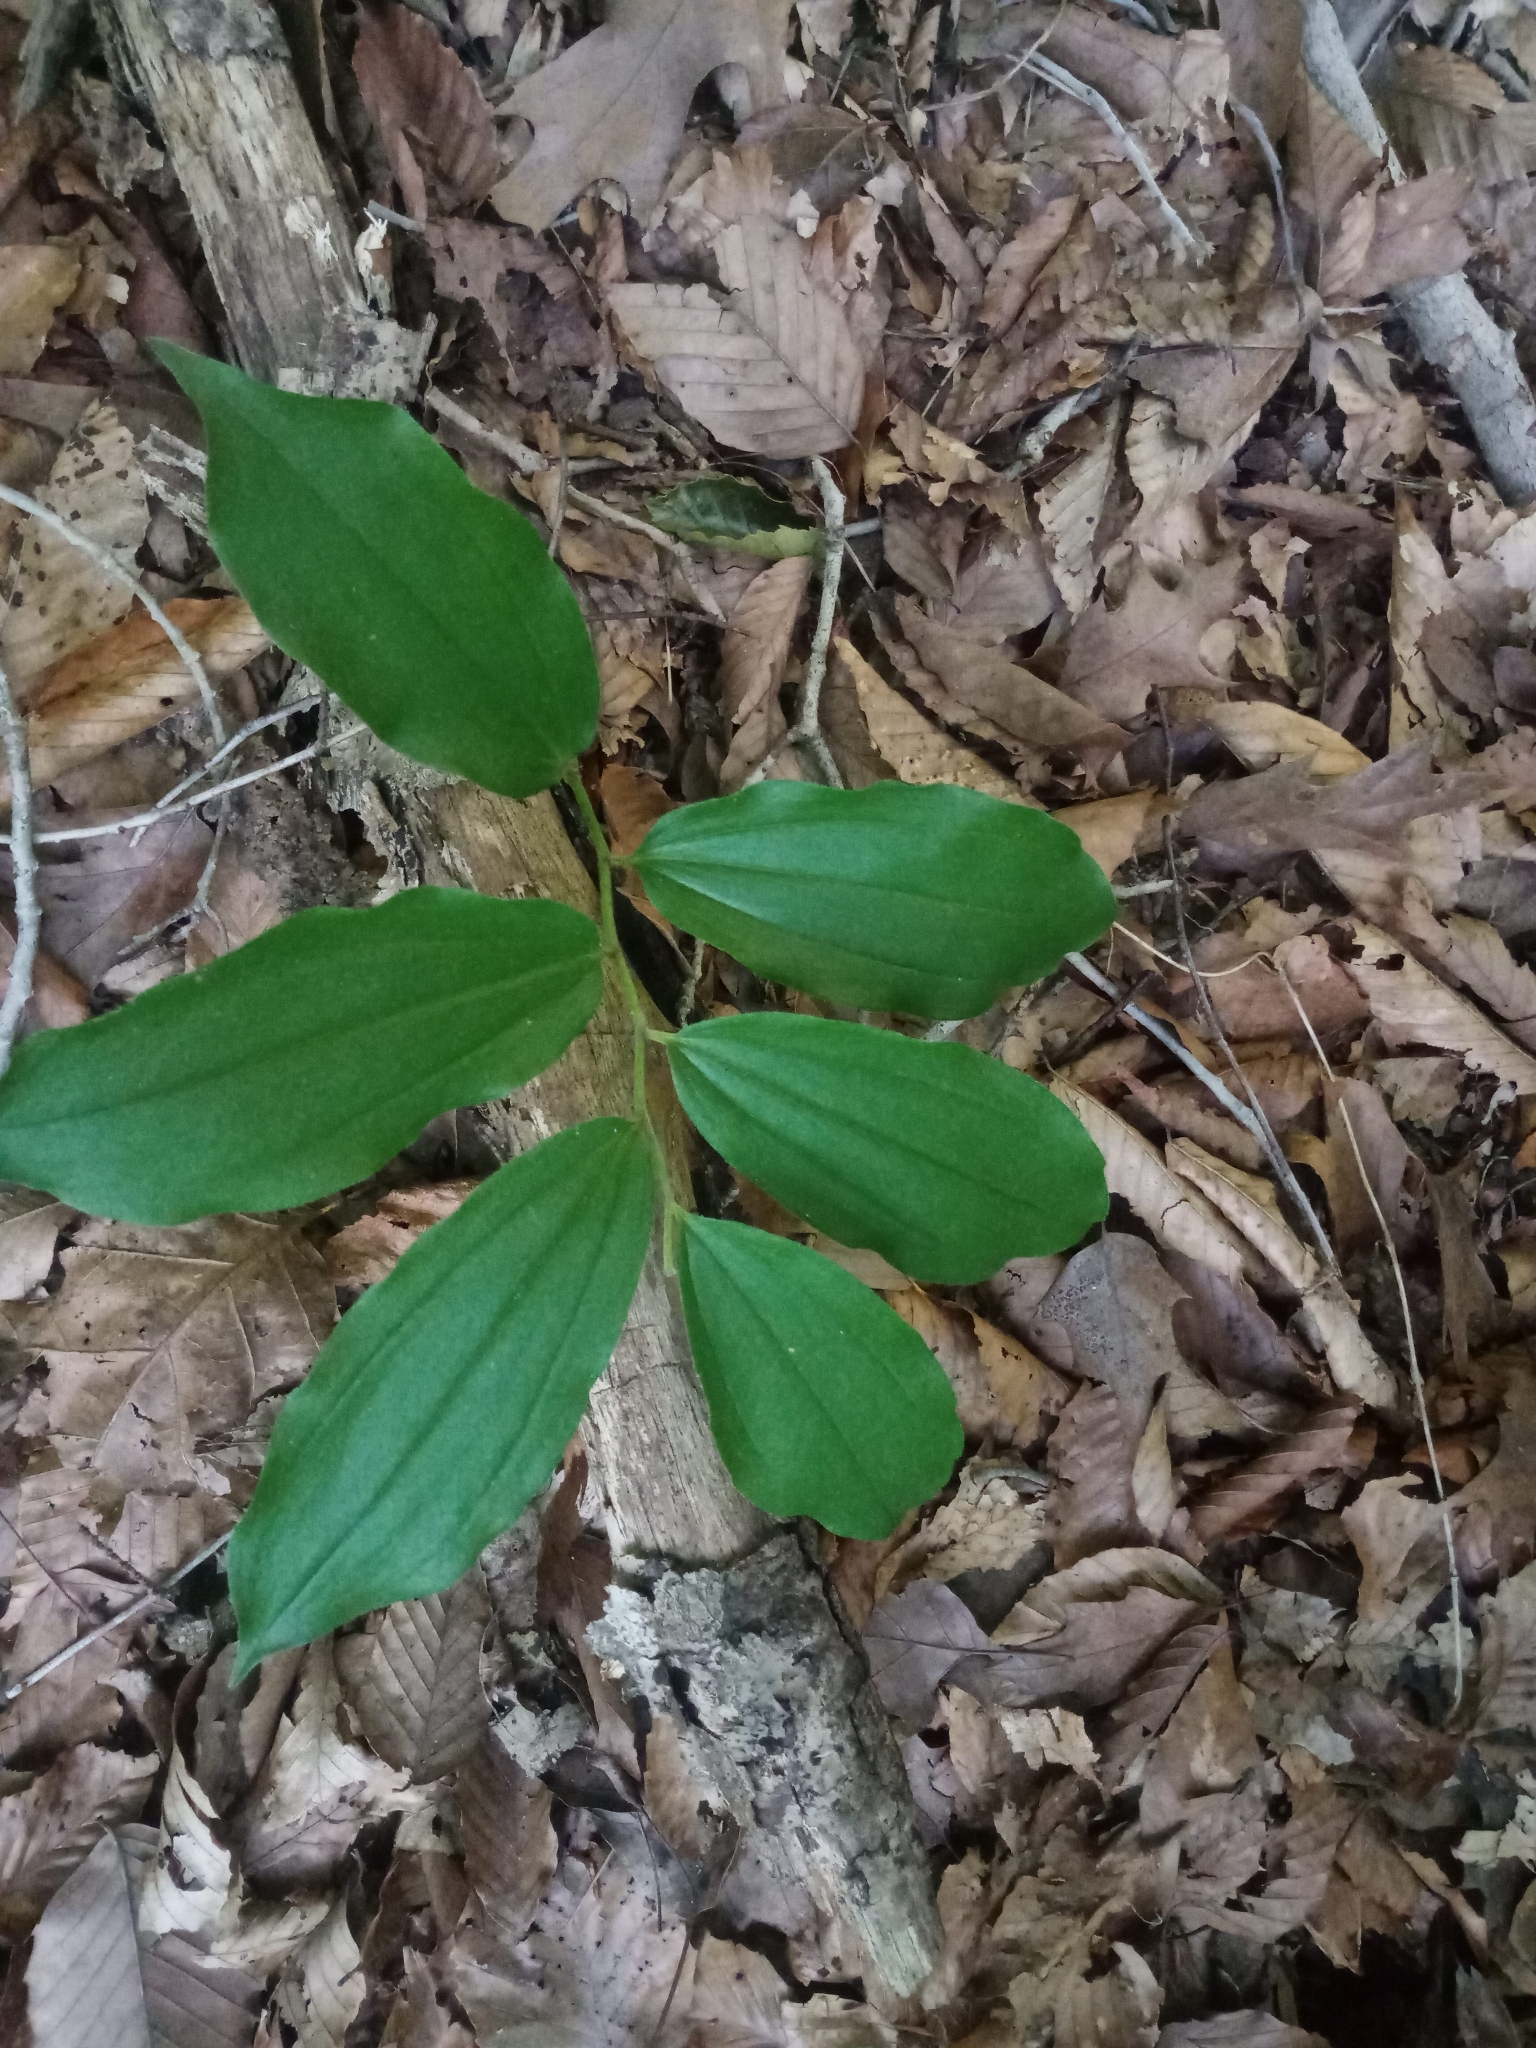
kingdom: Plantae
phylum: Tracheophyta
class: Liliopsida
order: Asparagales
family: Asparagaceae
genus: Maianthemum
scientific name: Maianthemum racemosum
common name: False spikenard
